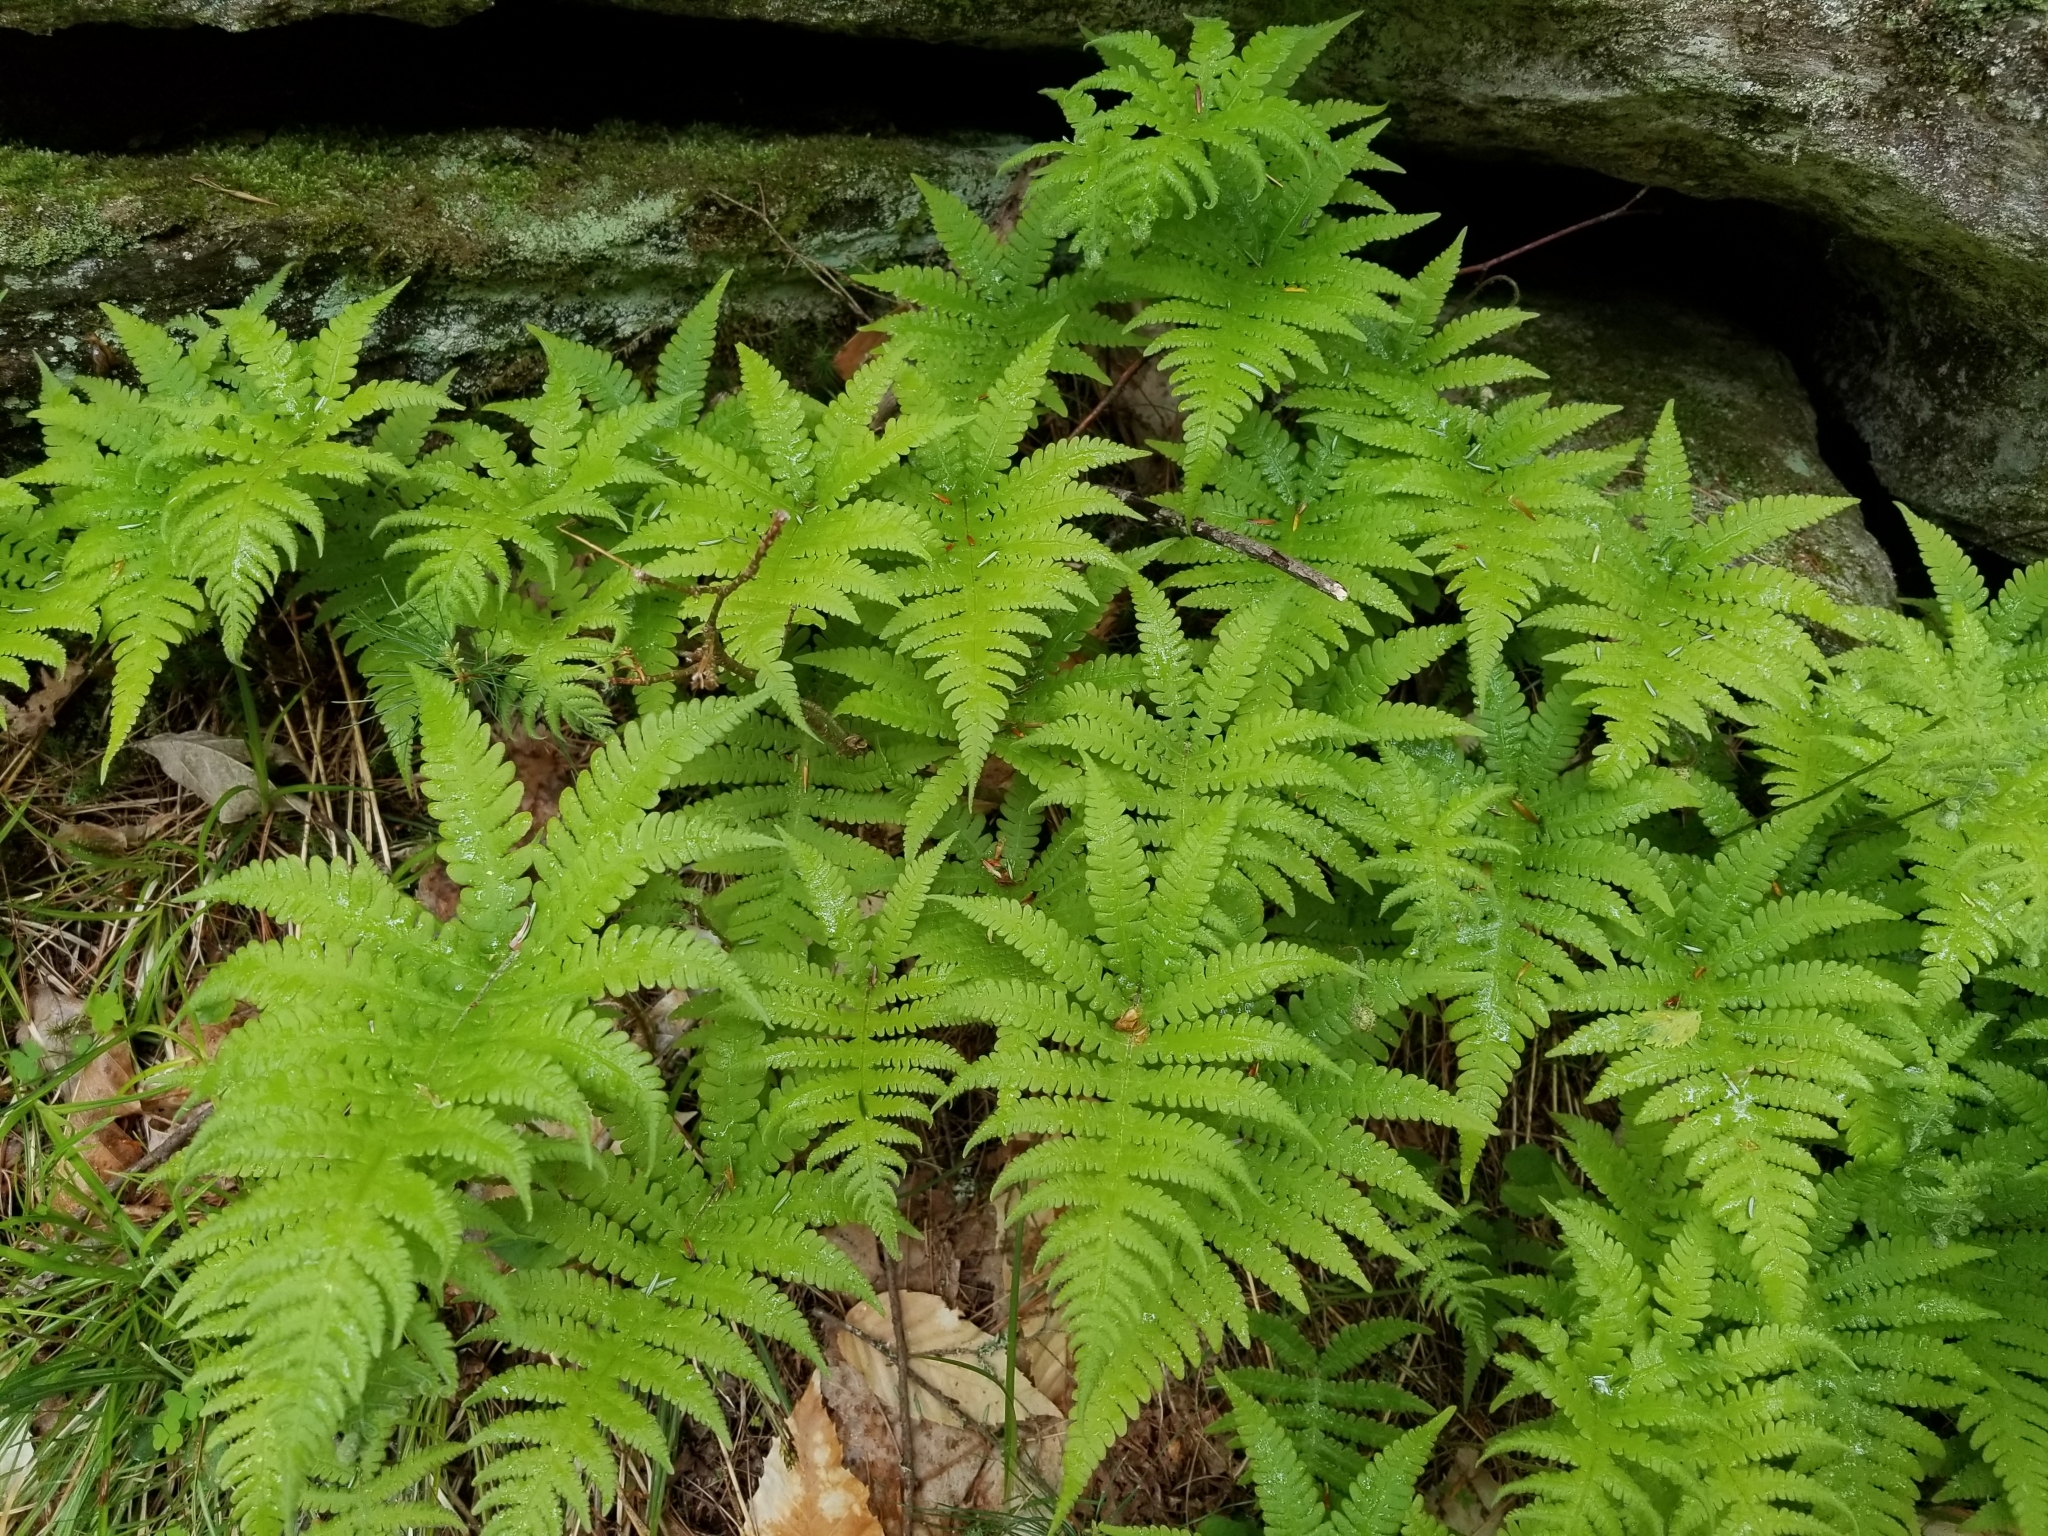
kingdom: Plantae
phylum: Tracheophyta
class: Polypodiopsida
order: Polypodiales
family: Thelypteridaceae
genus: Phegopteris
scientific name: Phegopteris connectilis
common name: Beech fern
